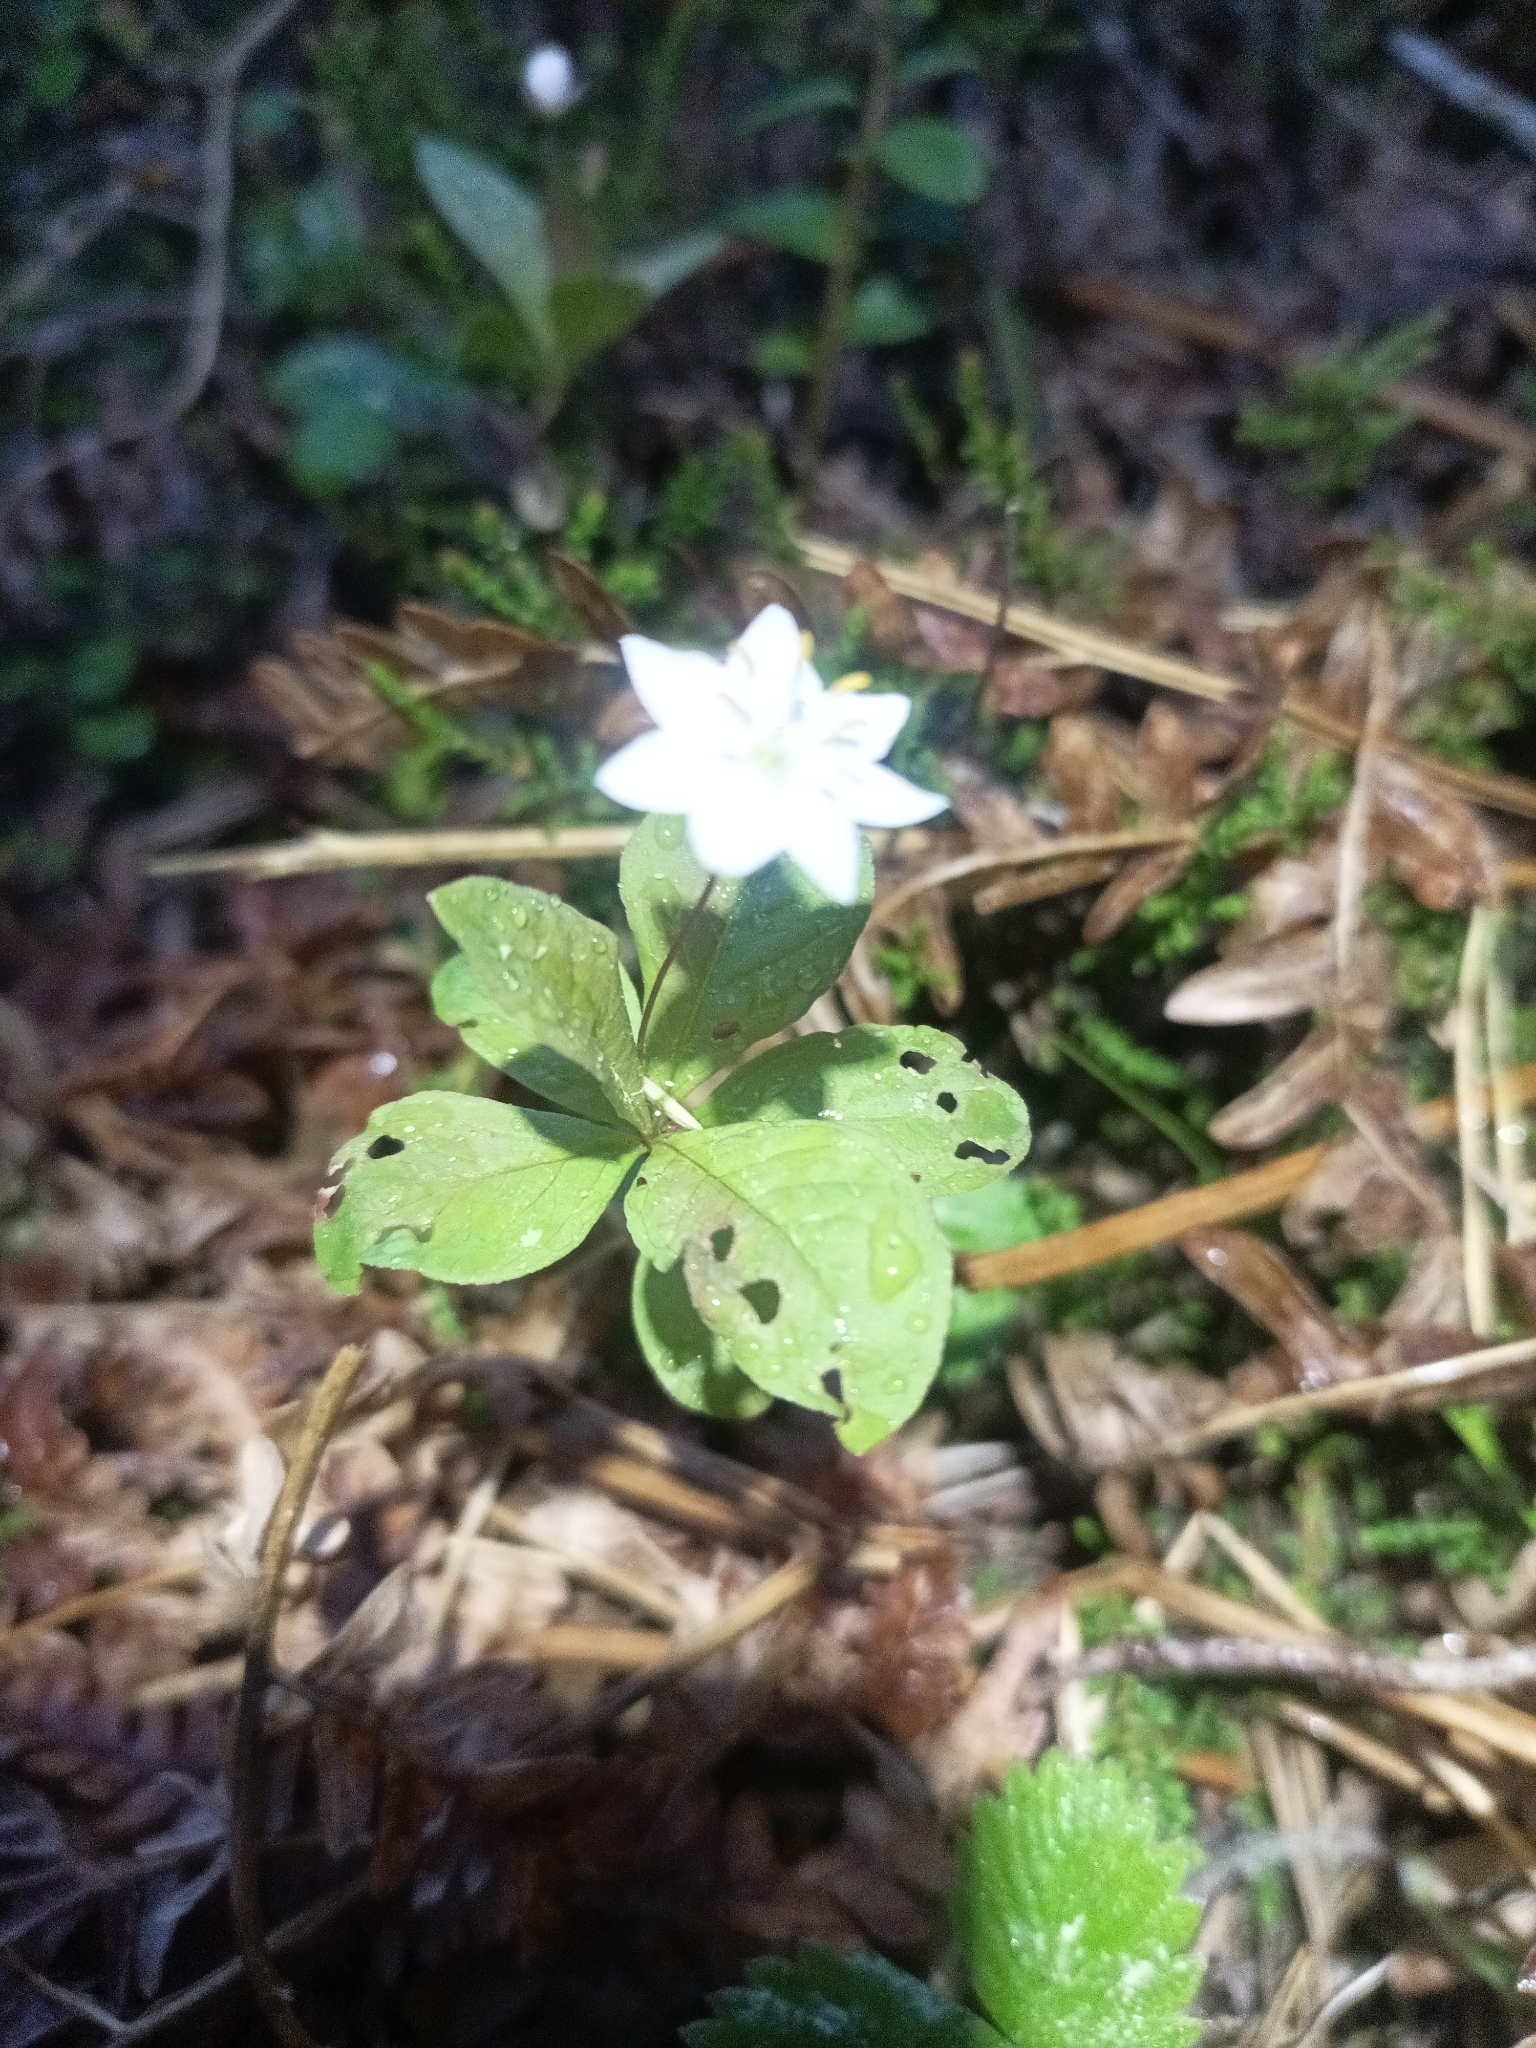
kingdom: Plantae
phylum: Tracheophyta
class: Magnoliopsida
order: Ericales
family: Primulaceae
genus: Lysimachia
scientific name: Lysimachia europaea
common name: Arctic starflower
